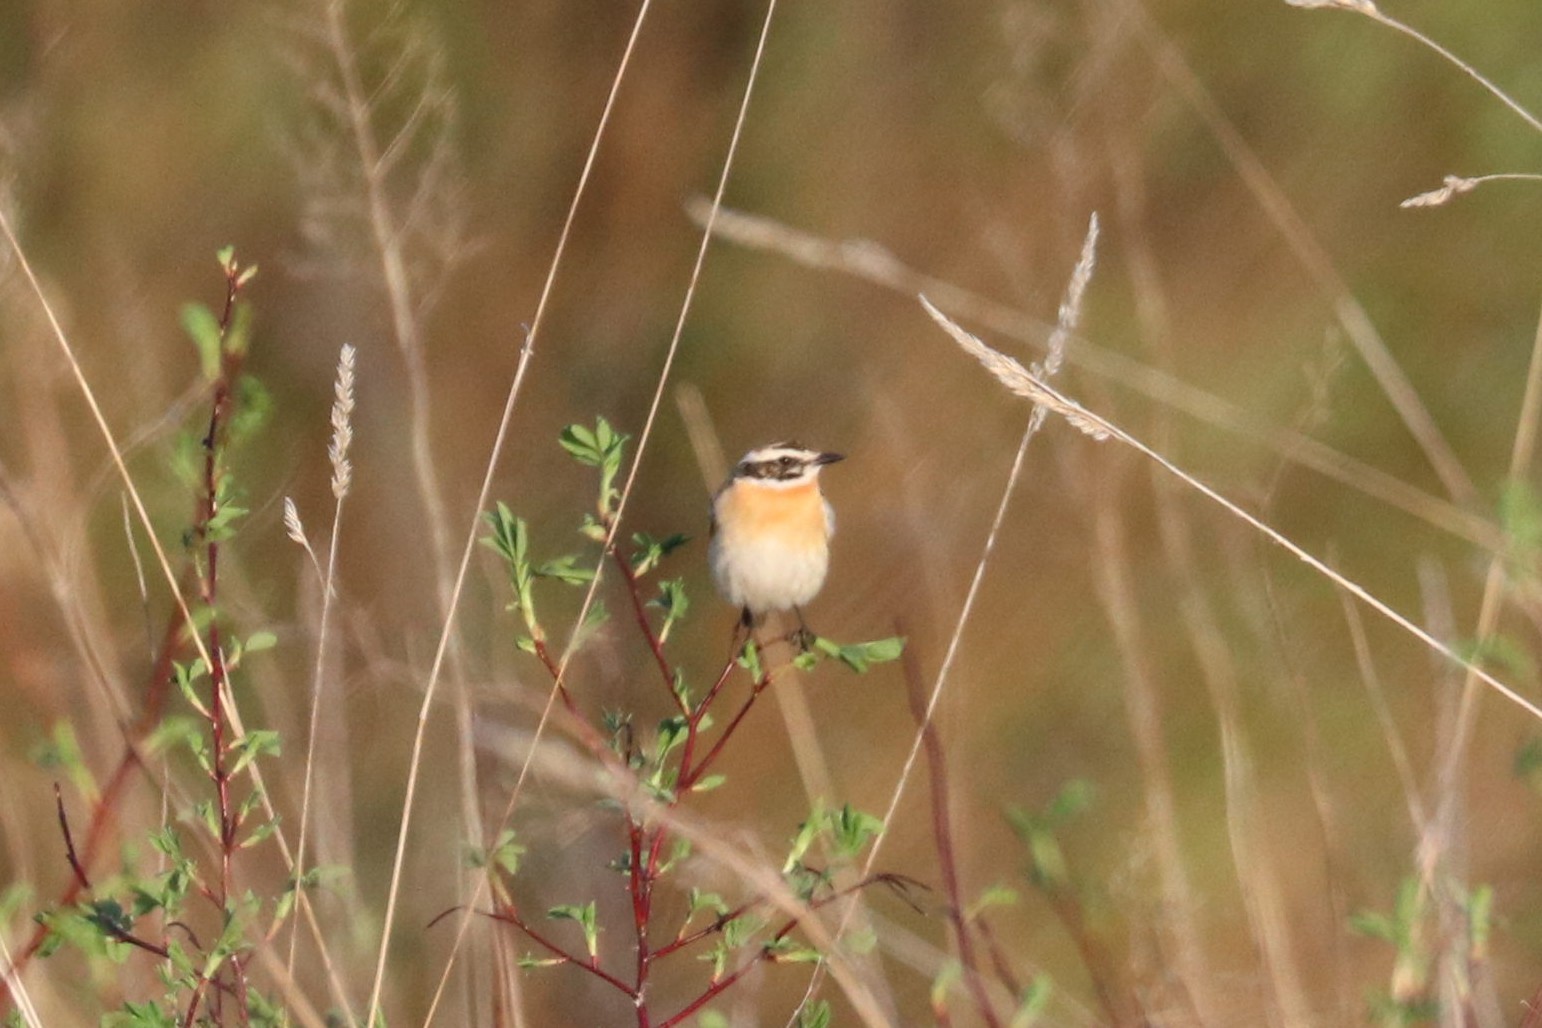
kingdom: Animalia
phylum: Chordata
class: Aves
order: Passeriformes
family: Muscicapidae
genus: Saxicola
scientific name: Saxicola rubetra
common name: Whinchat
